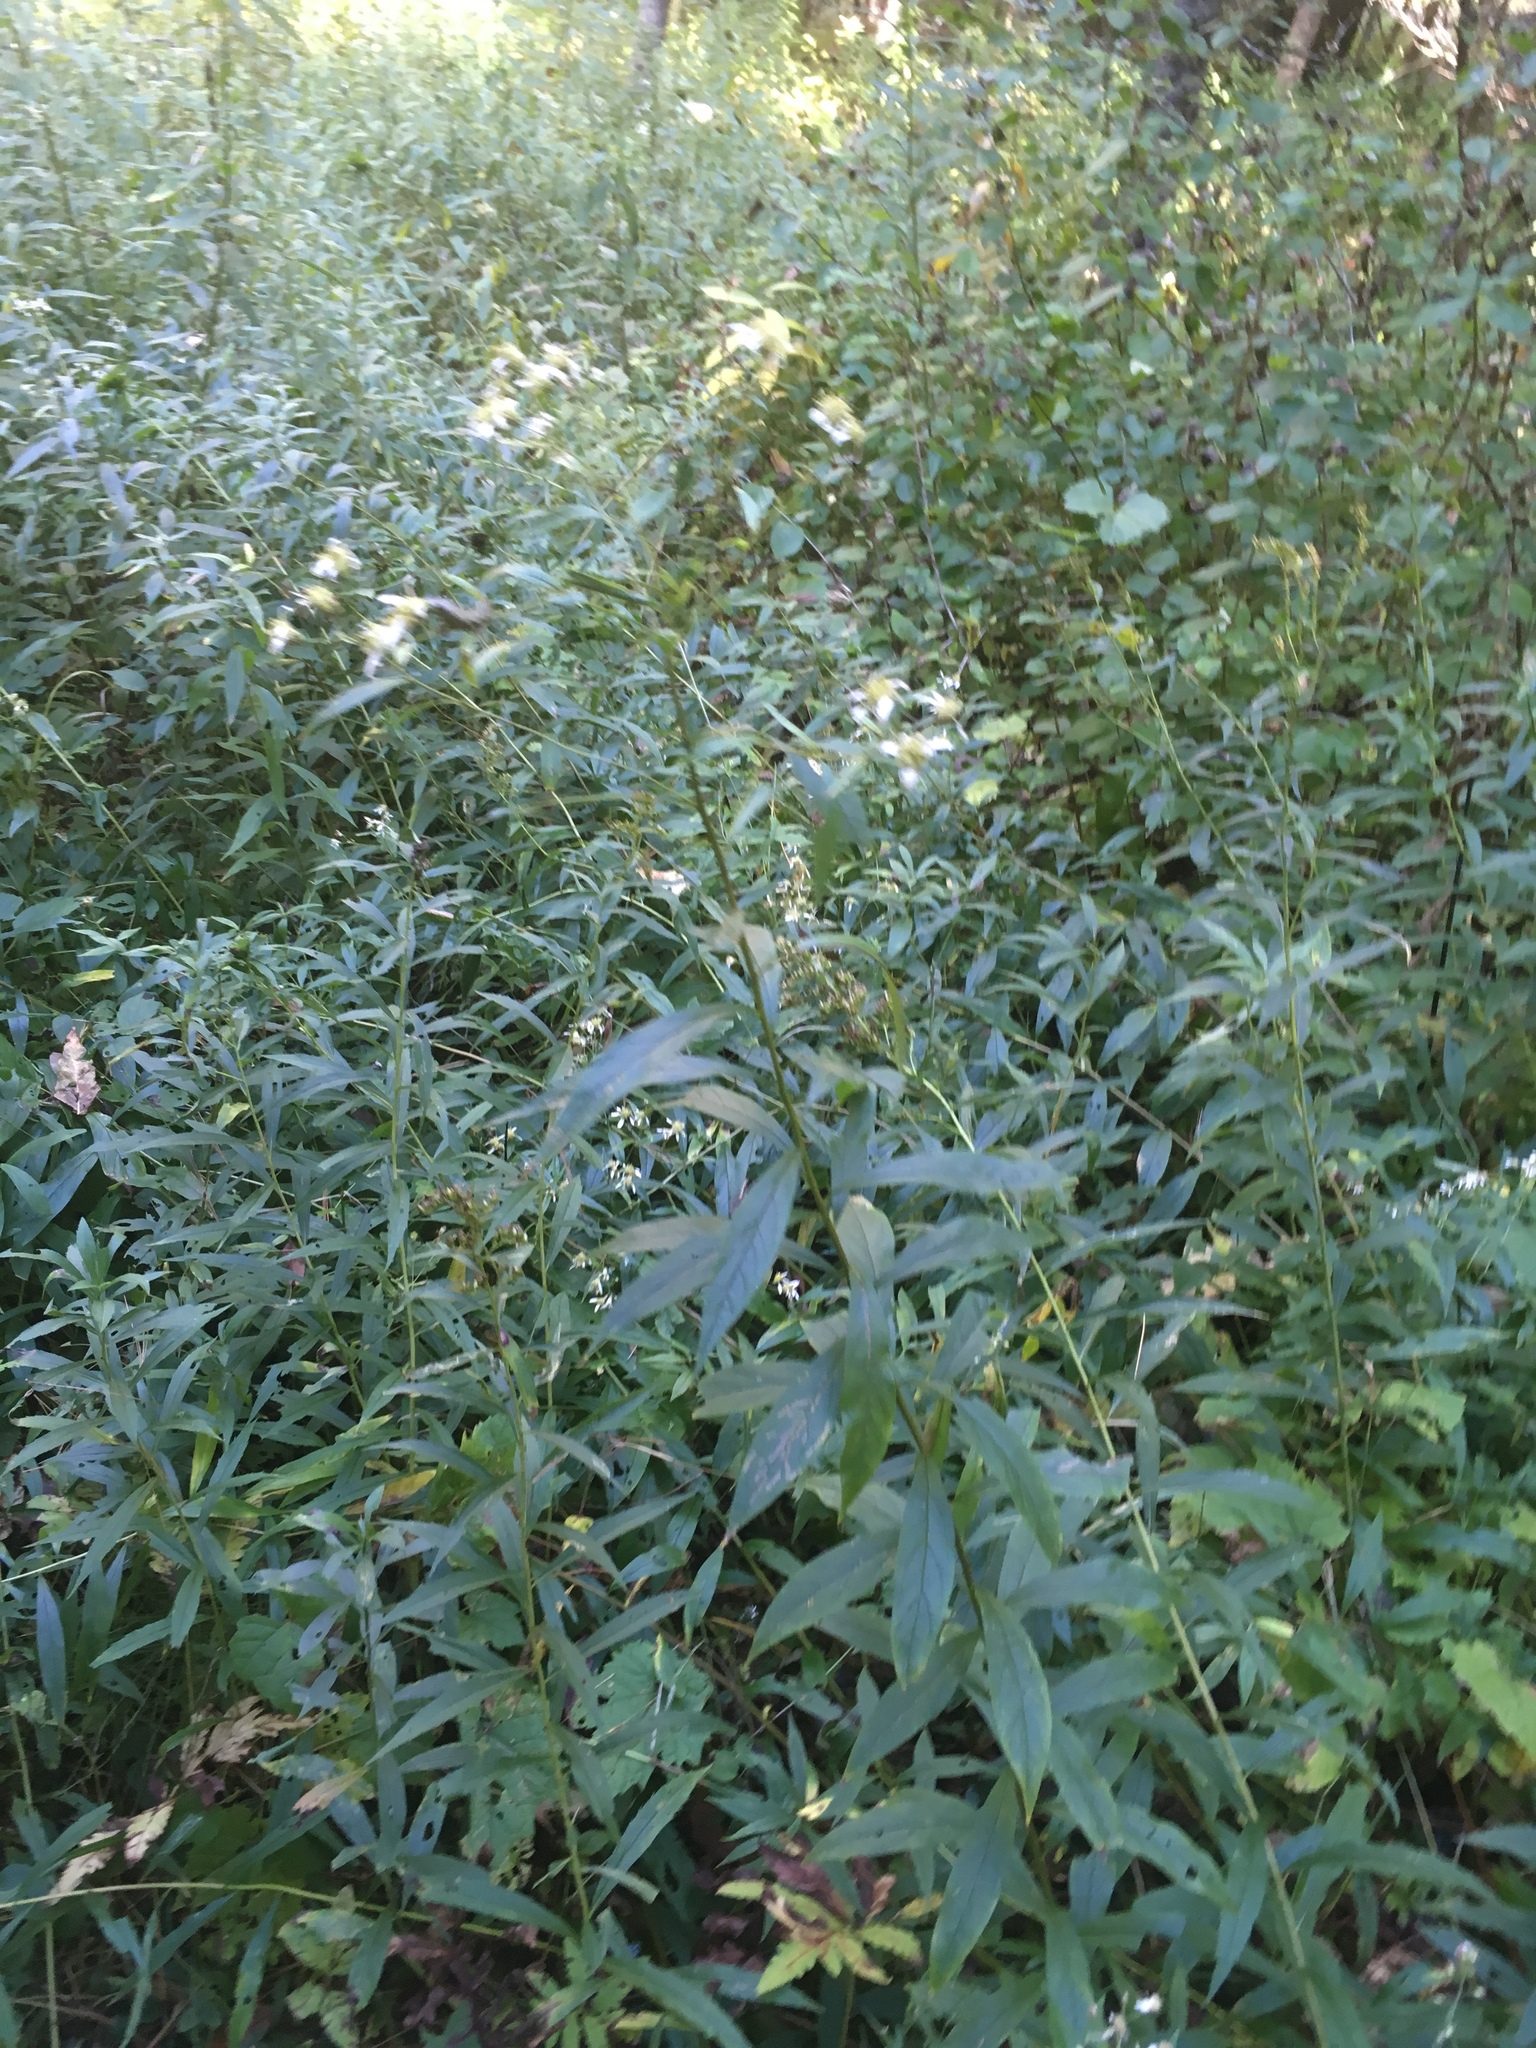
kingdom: Plantae
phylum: Tracheophyta
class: Magnoliopsida
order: Asterales
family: Asteraceae
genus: Doellingeria
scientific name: Doellingeria umbellata
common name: Flat-top white aster
